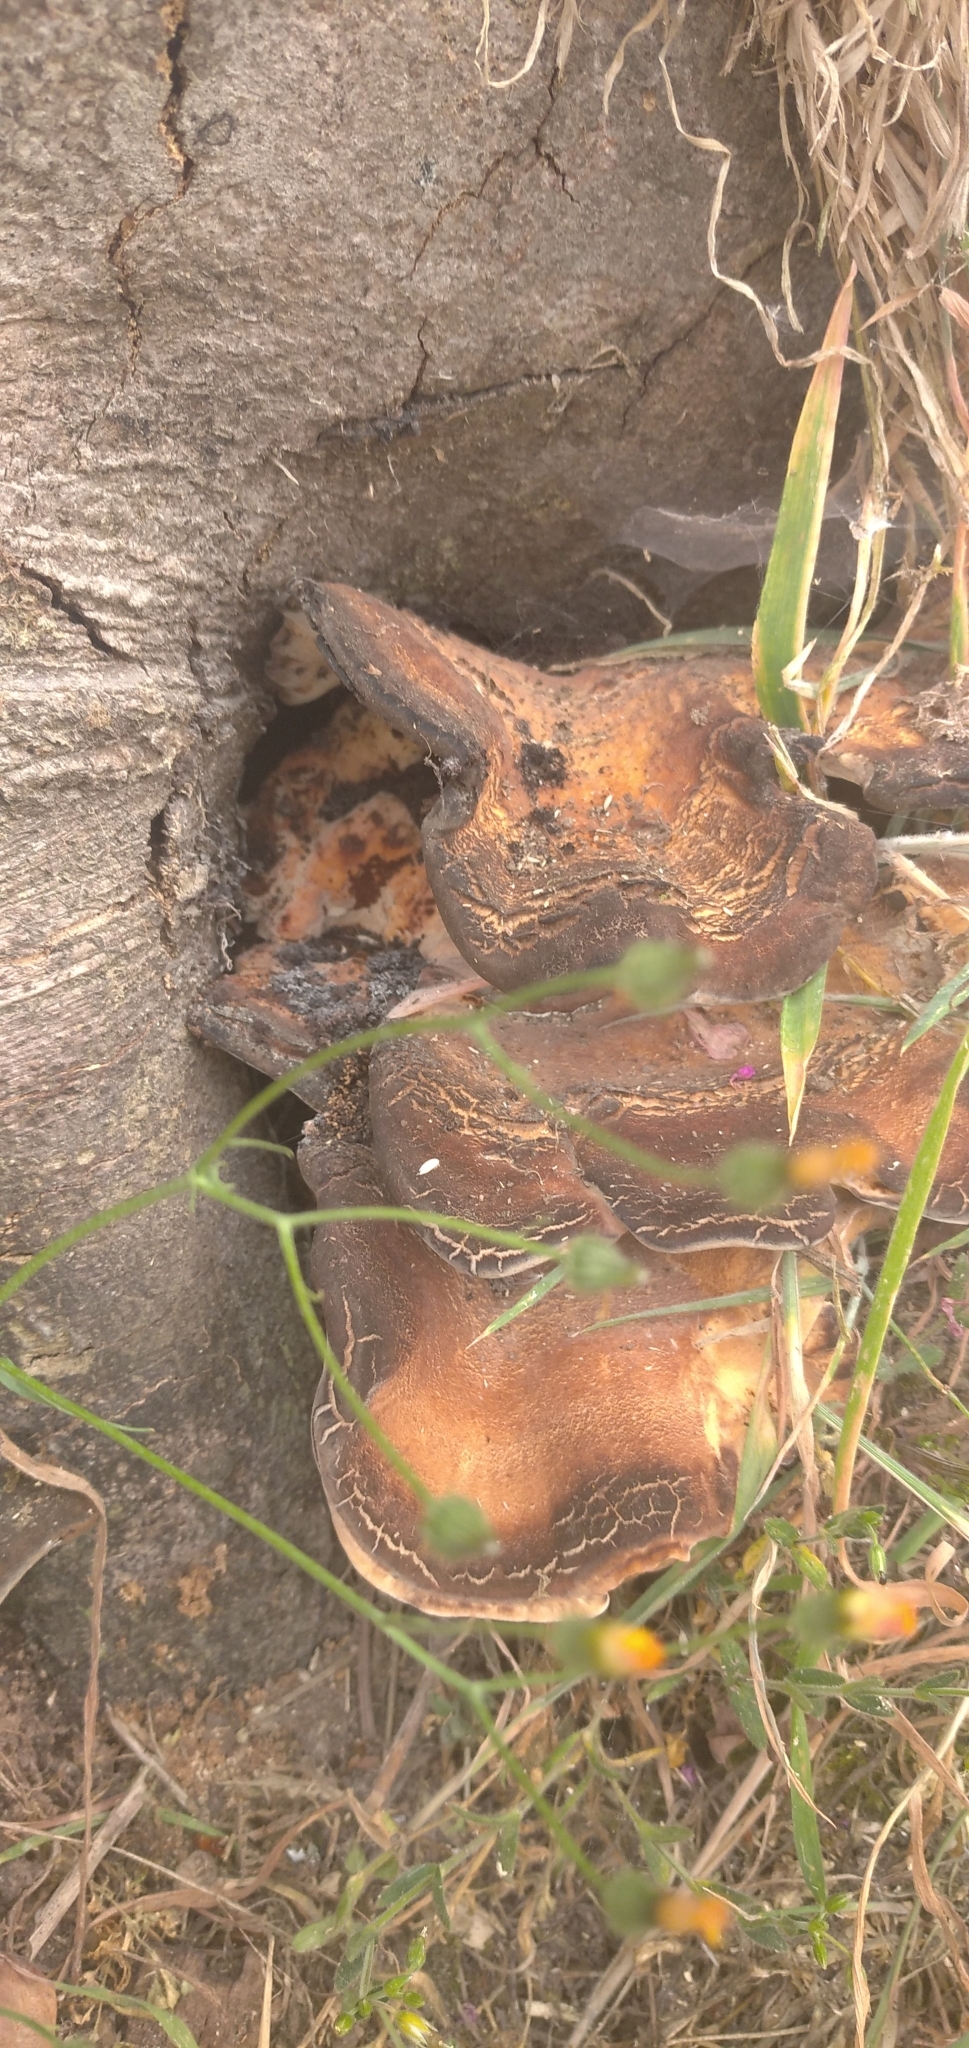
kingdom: Fungi
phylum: Basidiomycota
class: Agaricomycetes
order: Polyporales
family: Meripilaceae
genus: Meripilus
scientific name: Meripilus giganteus
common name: Giant polypore
